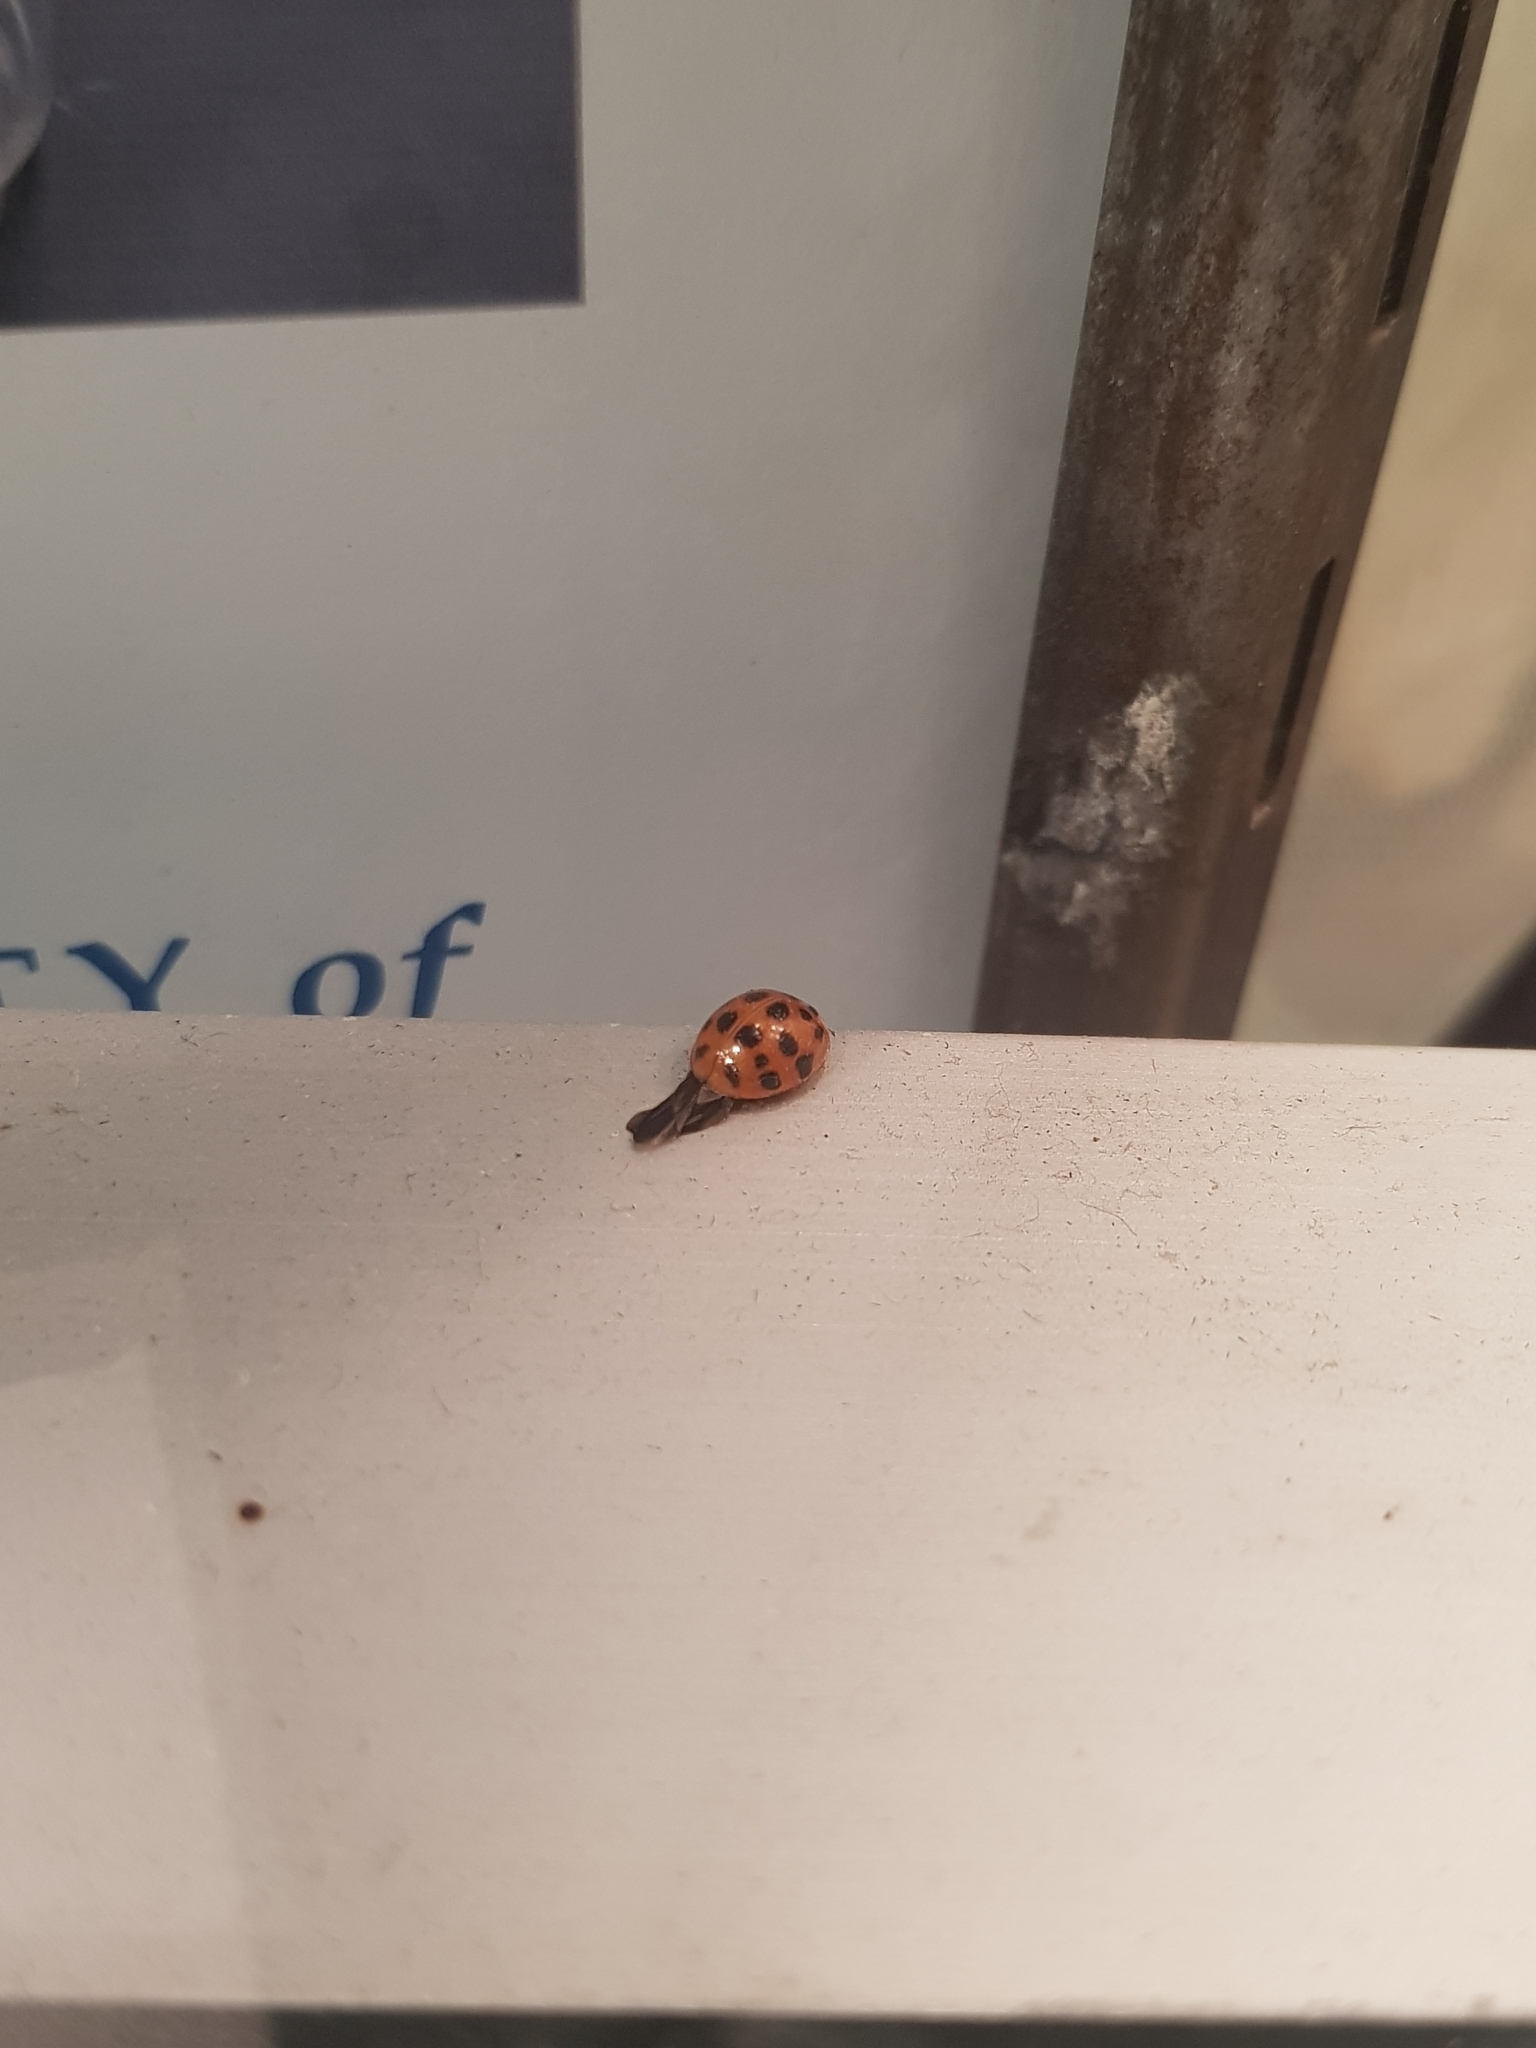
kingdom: Animalia
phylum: Arthropoda
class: Insecta
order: Coleoptera
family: Coccinellidae
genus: Harmonia
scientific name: Harmonia axyridis
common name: Harlequin ladybird
